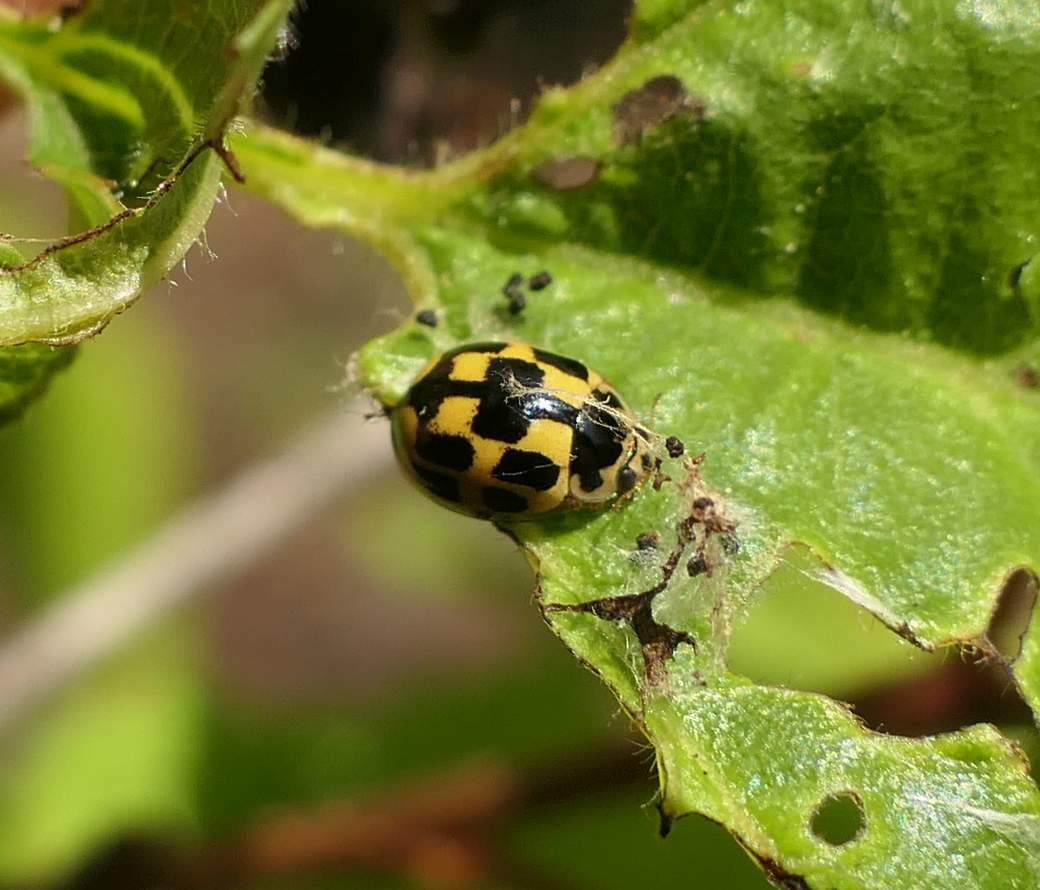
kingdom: Animalia
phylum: Arthropoda
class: Insecta
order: Coleoptera
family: Coccinellidae
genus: Propylaea
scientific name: Propylaea quatuordecimpunctata
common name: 14-spotted ladybird beetle
